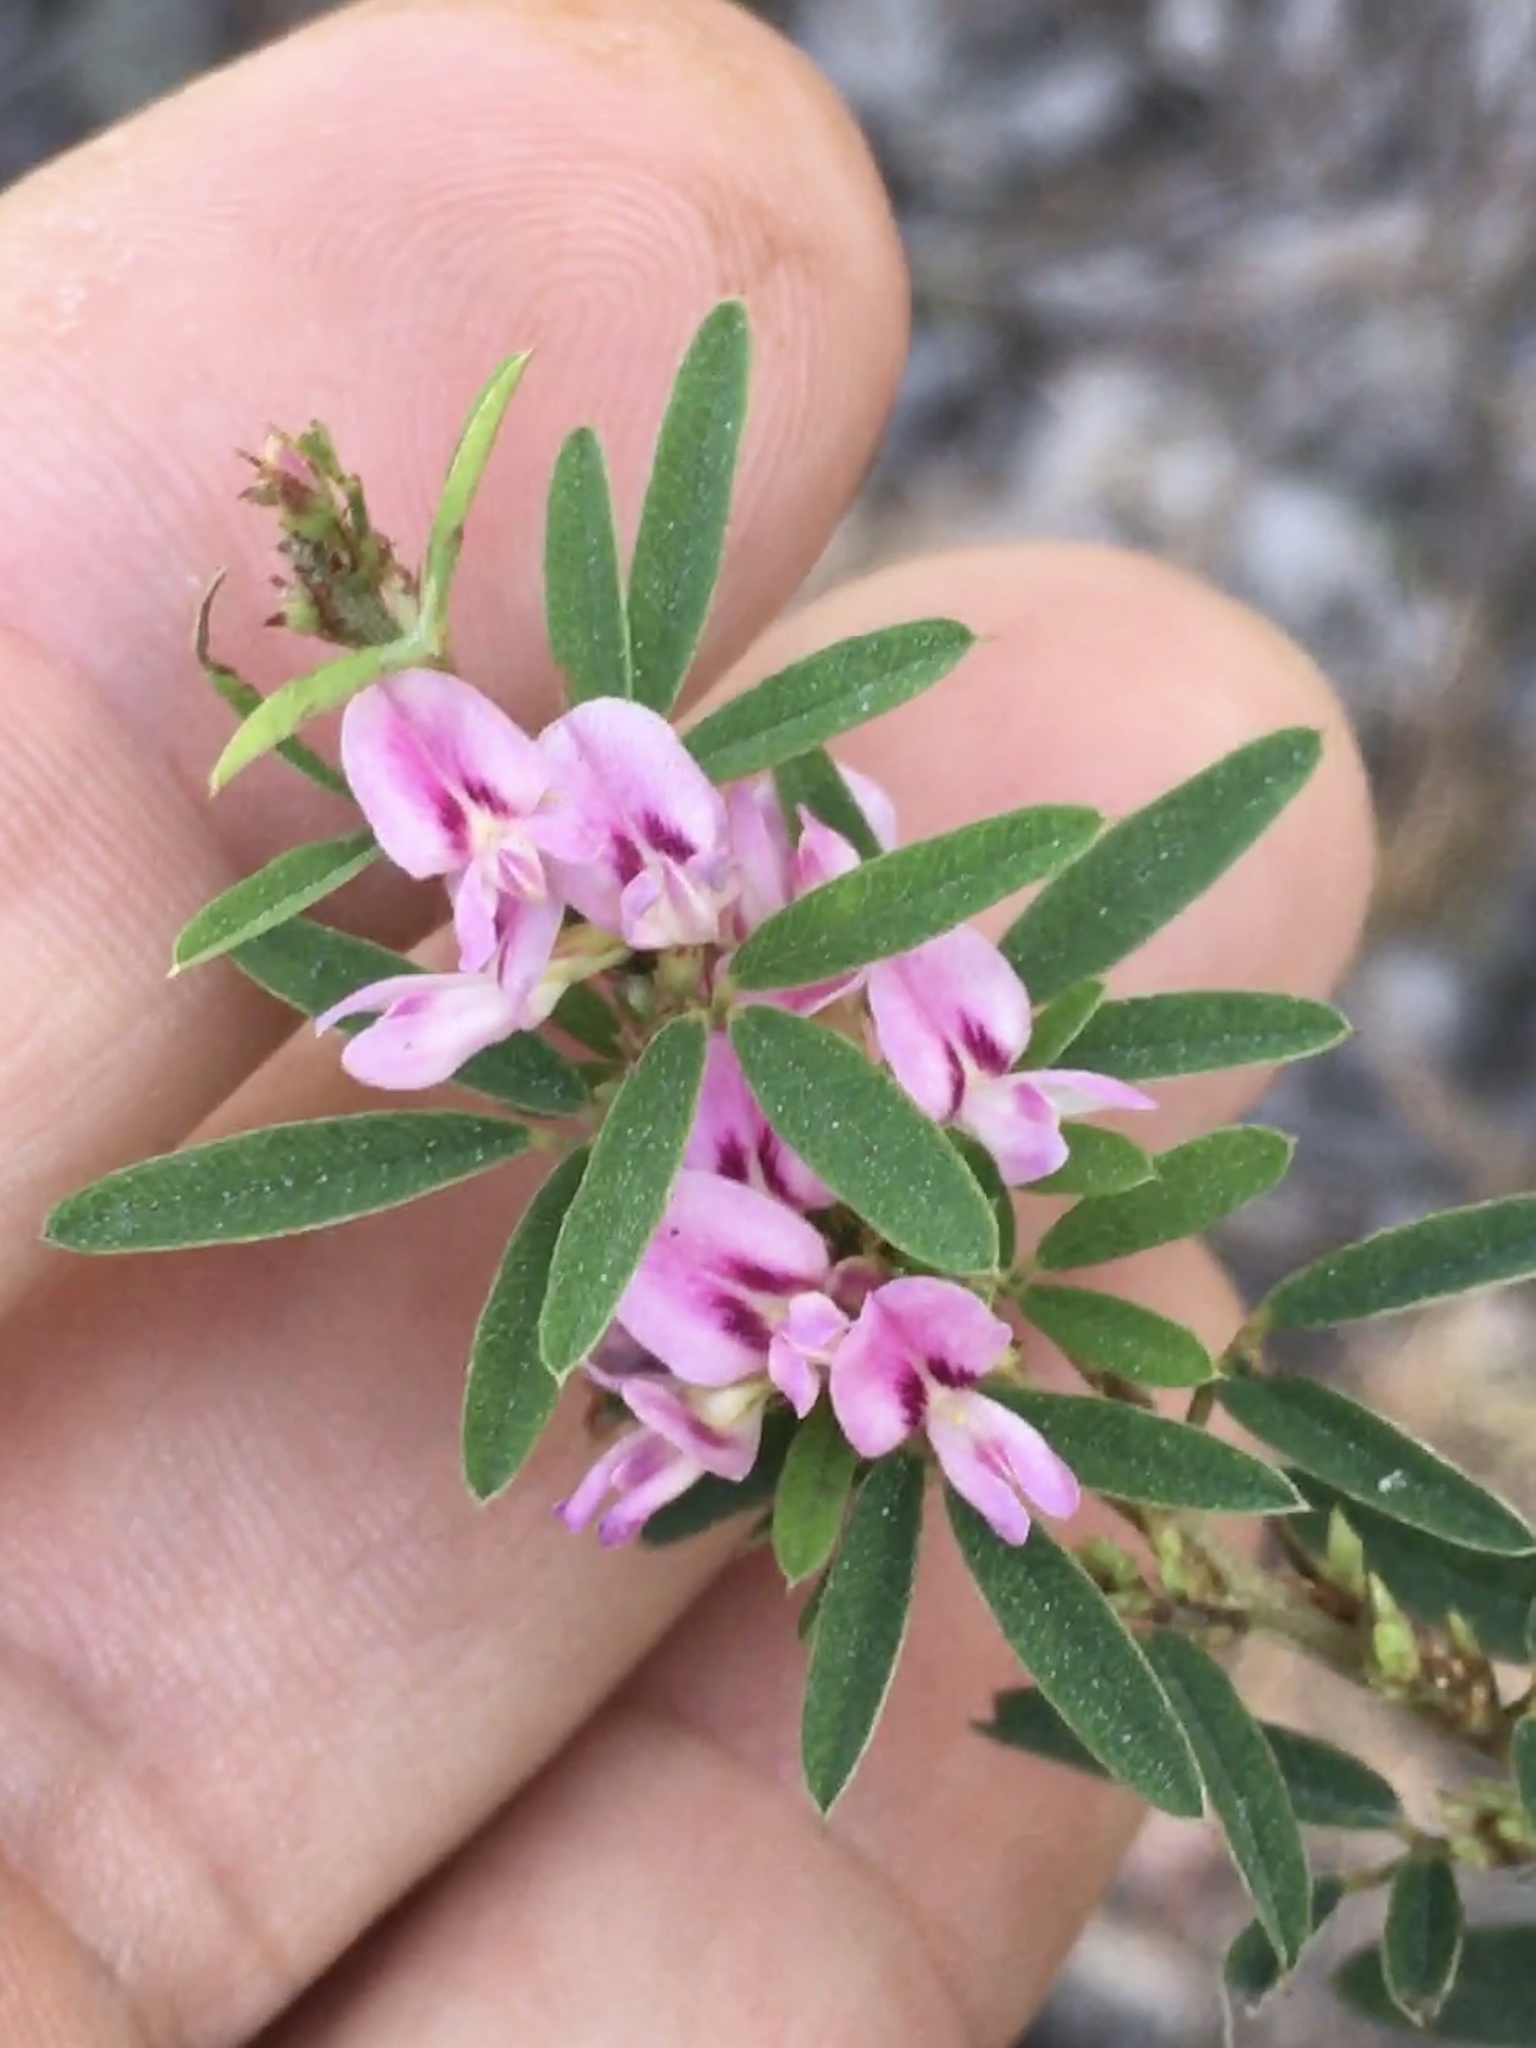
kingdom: Plantae
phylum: Tracheophyta
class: Magnoliopsida
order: Fabales
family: Fabaceae
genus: Lespedeza
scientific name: Lespedeza virginica
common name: Slender bush-clover
